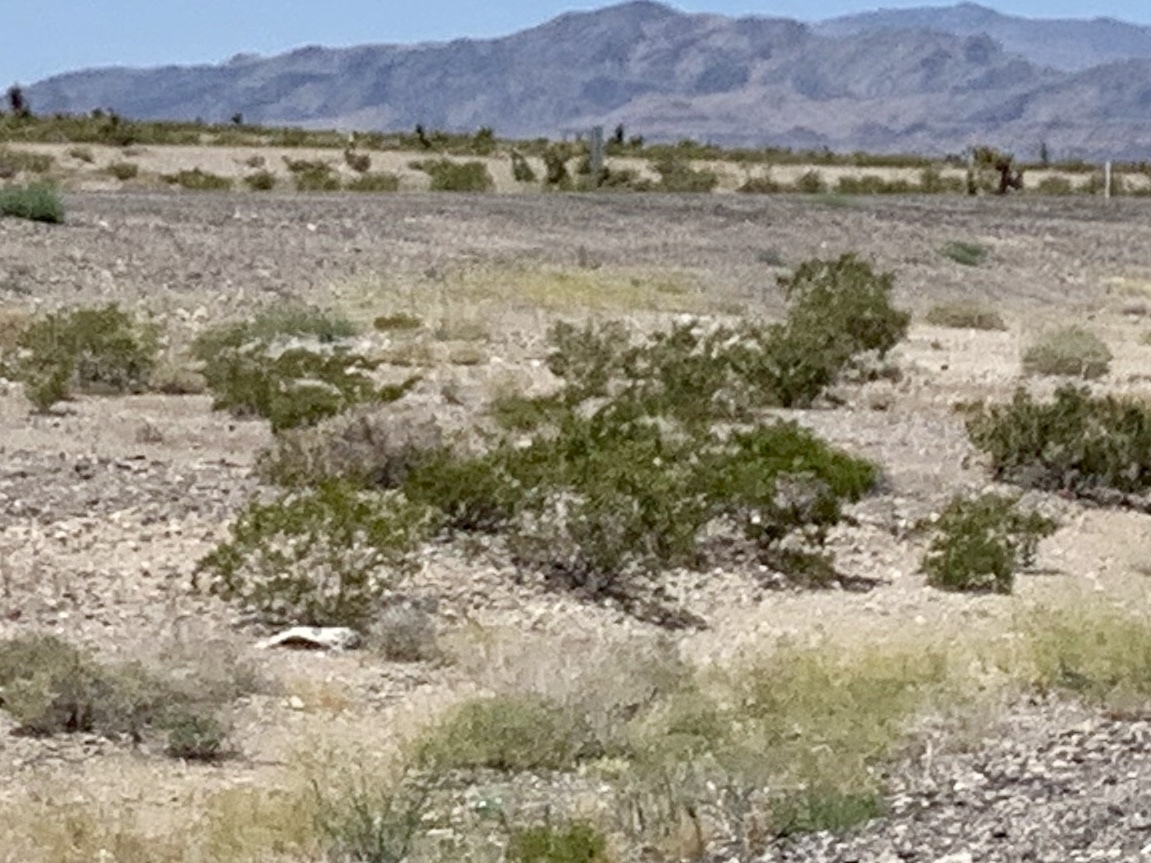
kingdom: Plantae
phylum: Tracheophyta
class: Magnoliopsida
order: Zygophyllales
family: Zygophyllaceae
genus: Larrea
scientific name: Larrea tridentata
